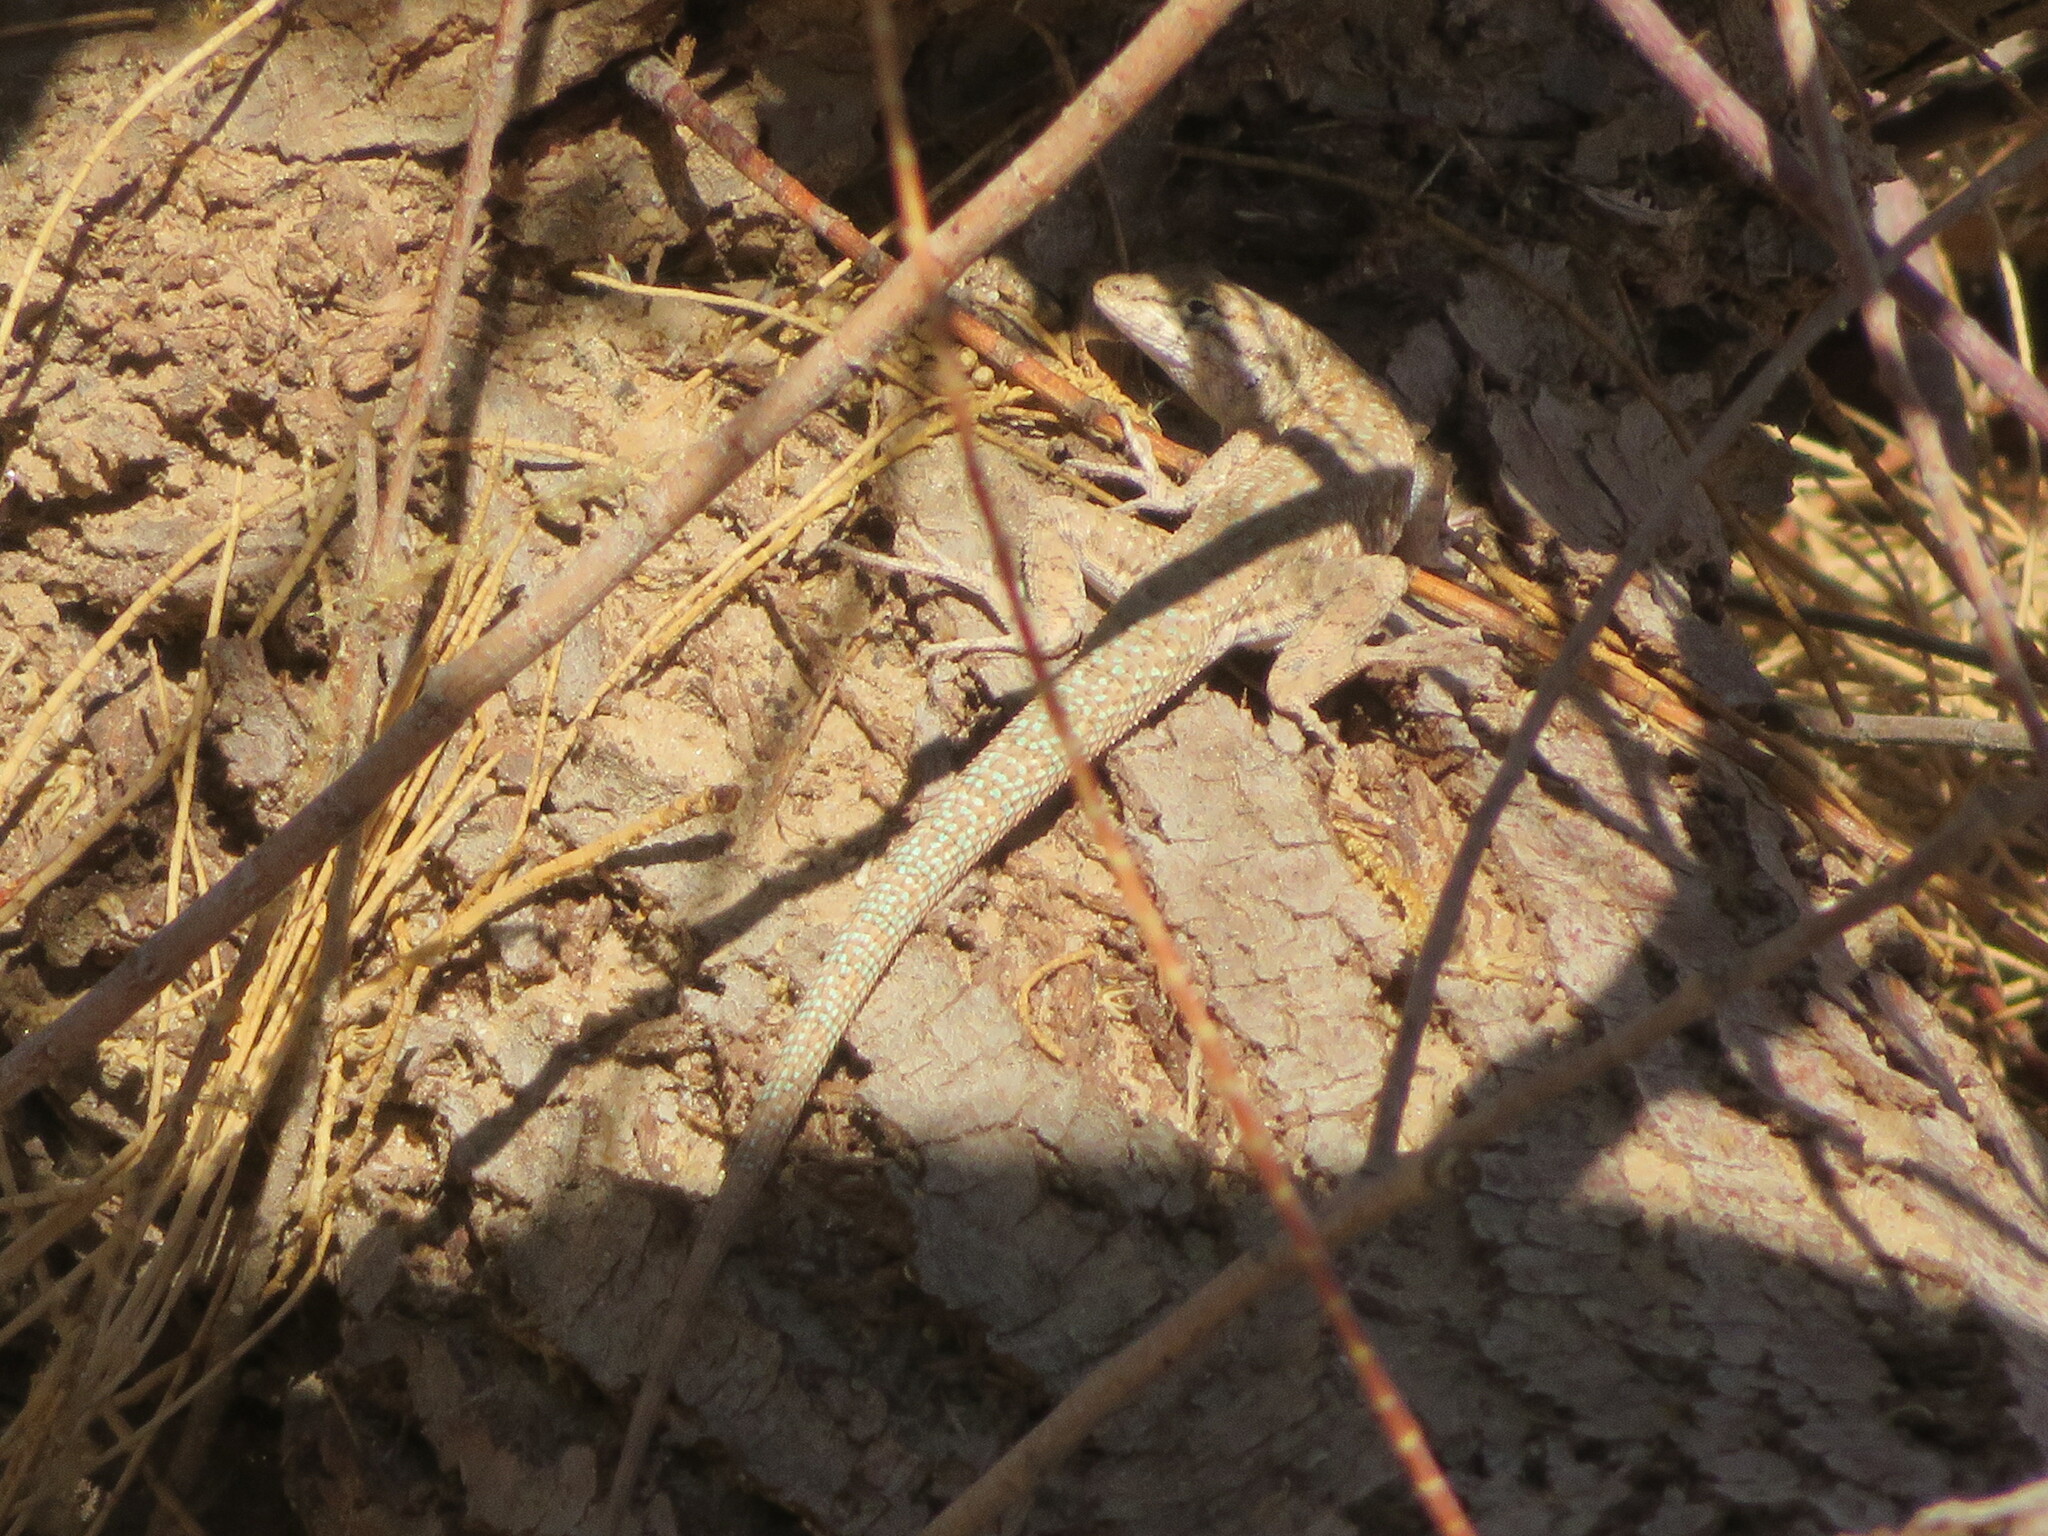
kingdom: Animalia
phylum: Chordata
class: Squamata
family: Phrynosomatidae
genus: Uta
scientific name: Uta stansburiana
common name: Side-blotched lizard
